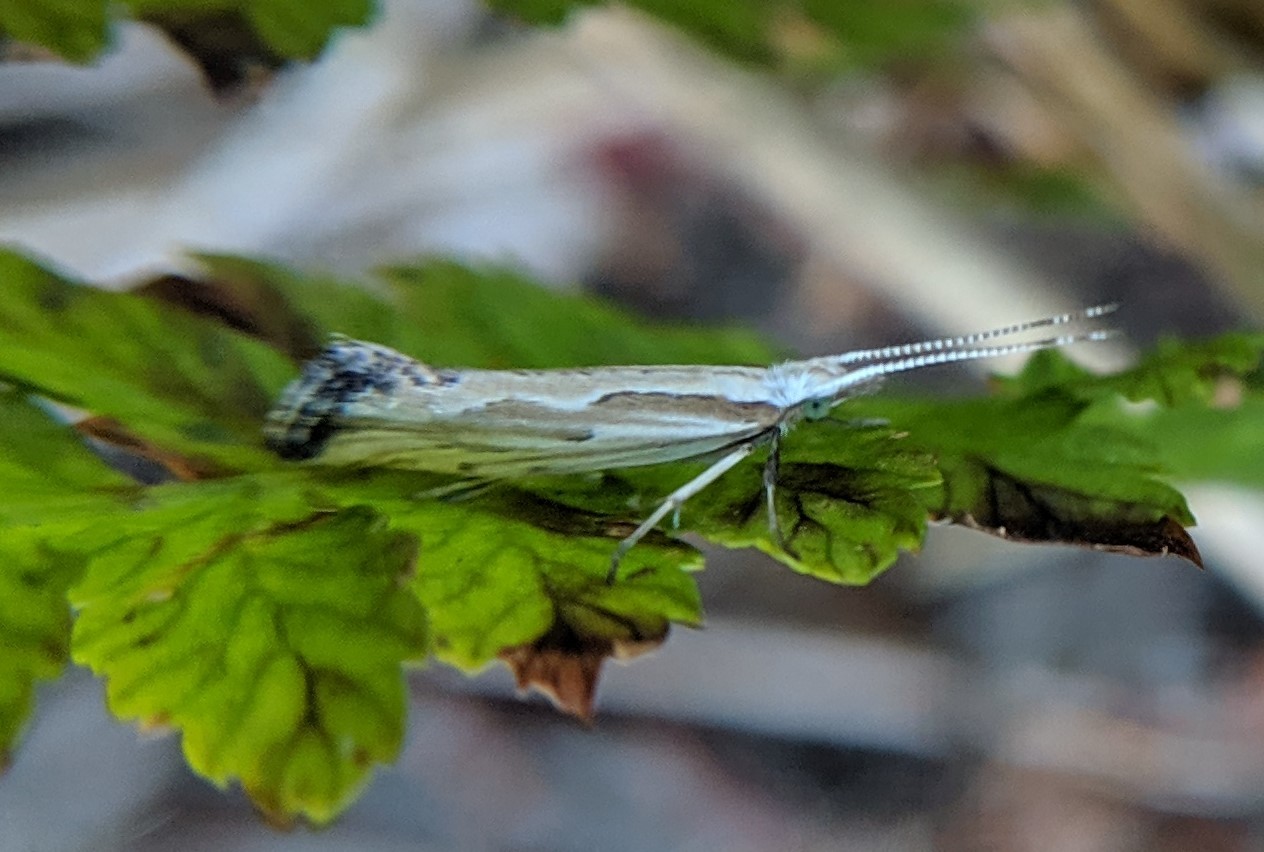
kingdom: Animalia
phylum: Arthropoda
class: Insecta
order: Lepidoptera
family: Plutellidae
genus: Plutella
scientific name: Plutella porrectella
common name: Dame's rocket moth
